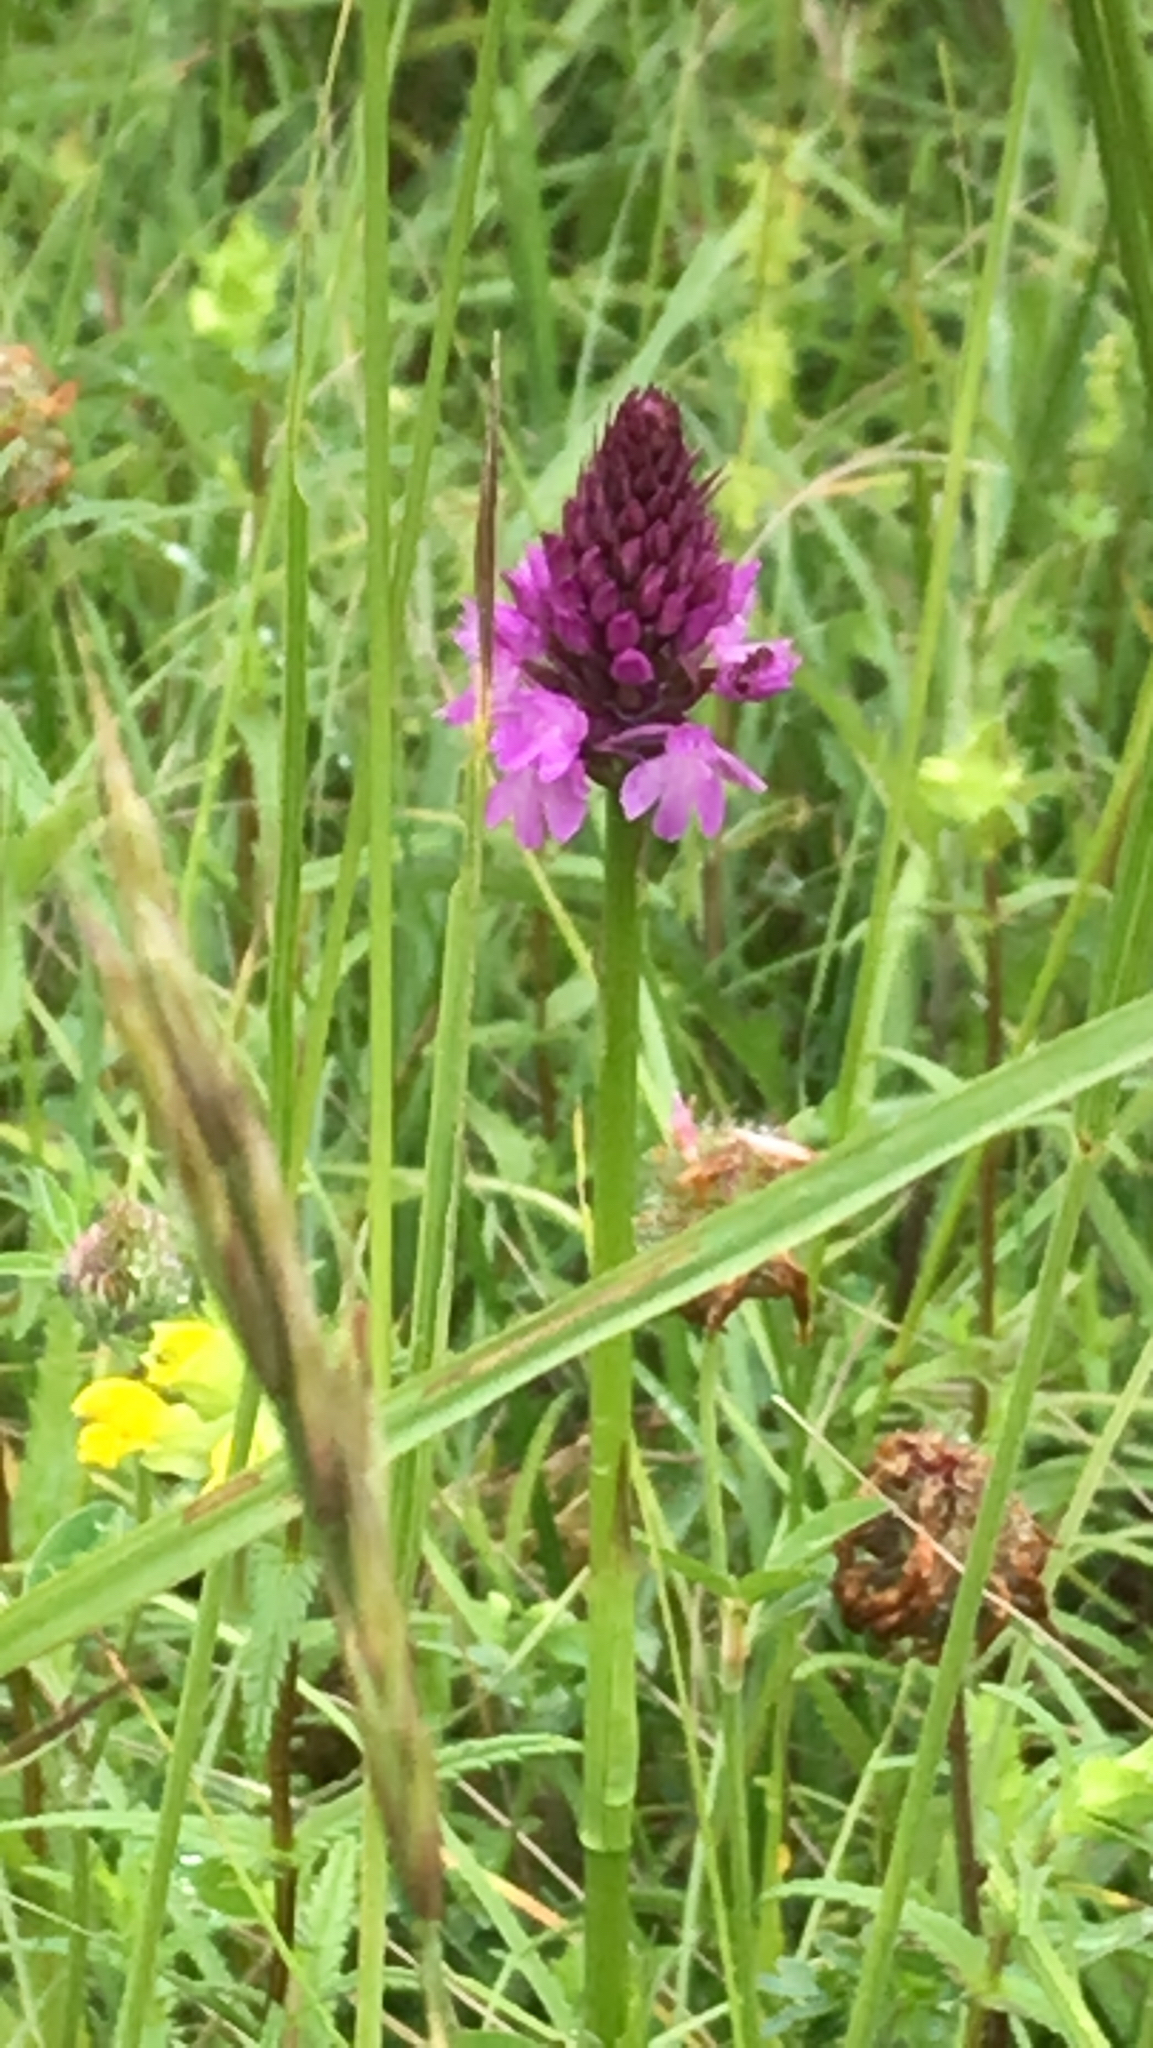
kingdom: Plantae
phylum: Tracheophyta
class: Liliopsida
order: Asparagales
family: Orchidaceae
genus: Anacamptis
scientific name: Anacamptis pyramidalis
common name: Pyramidal orchid
